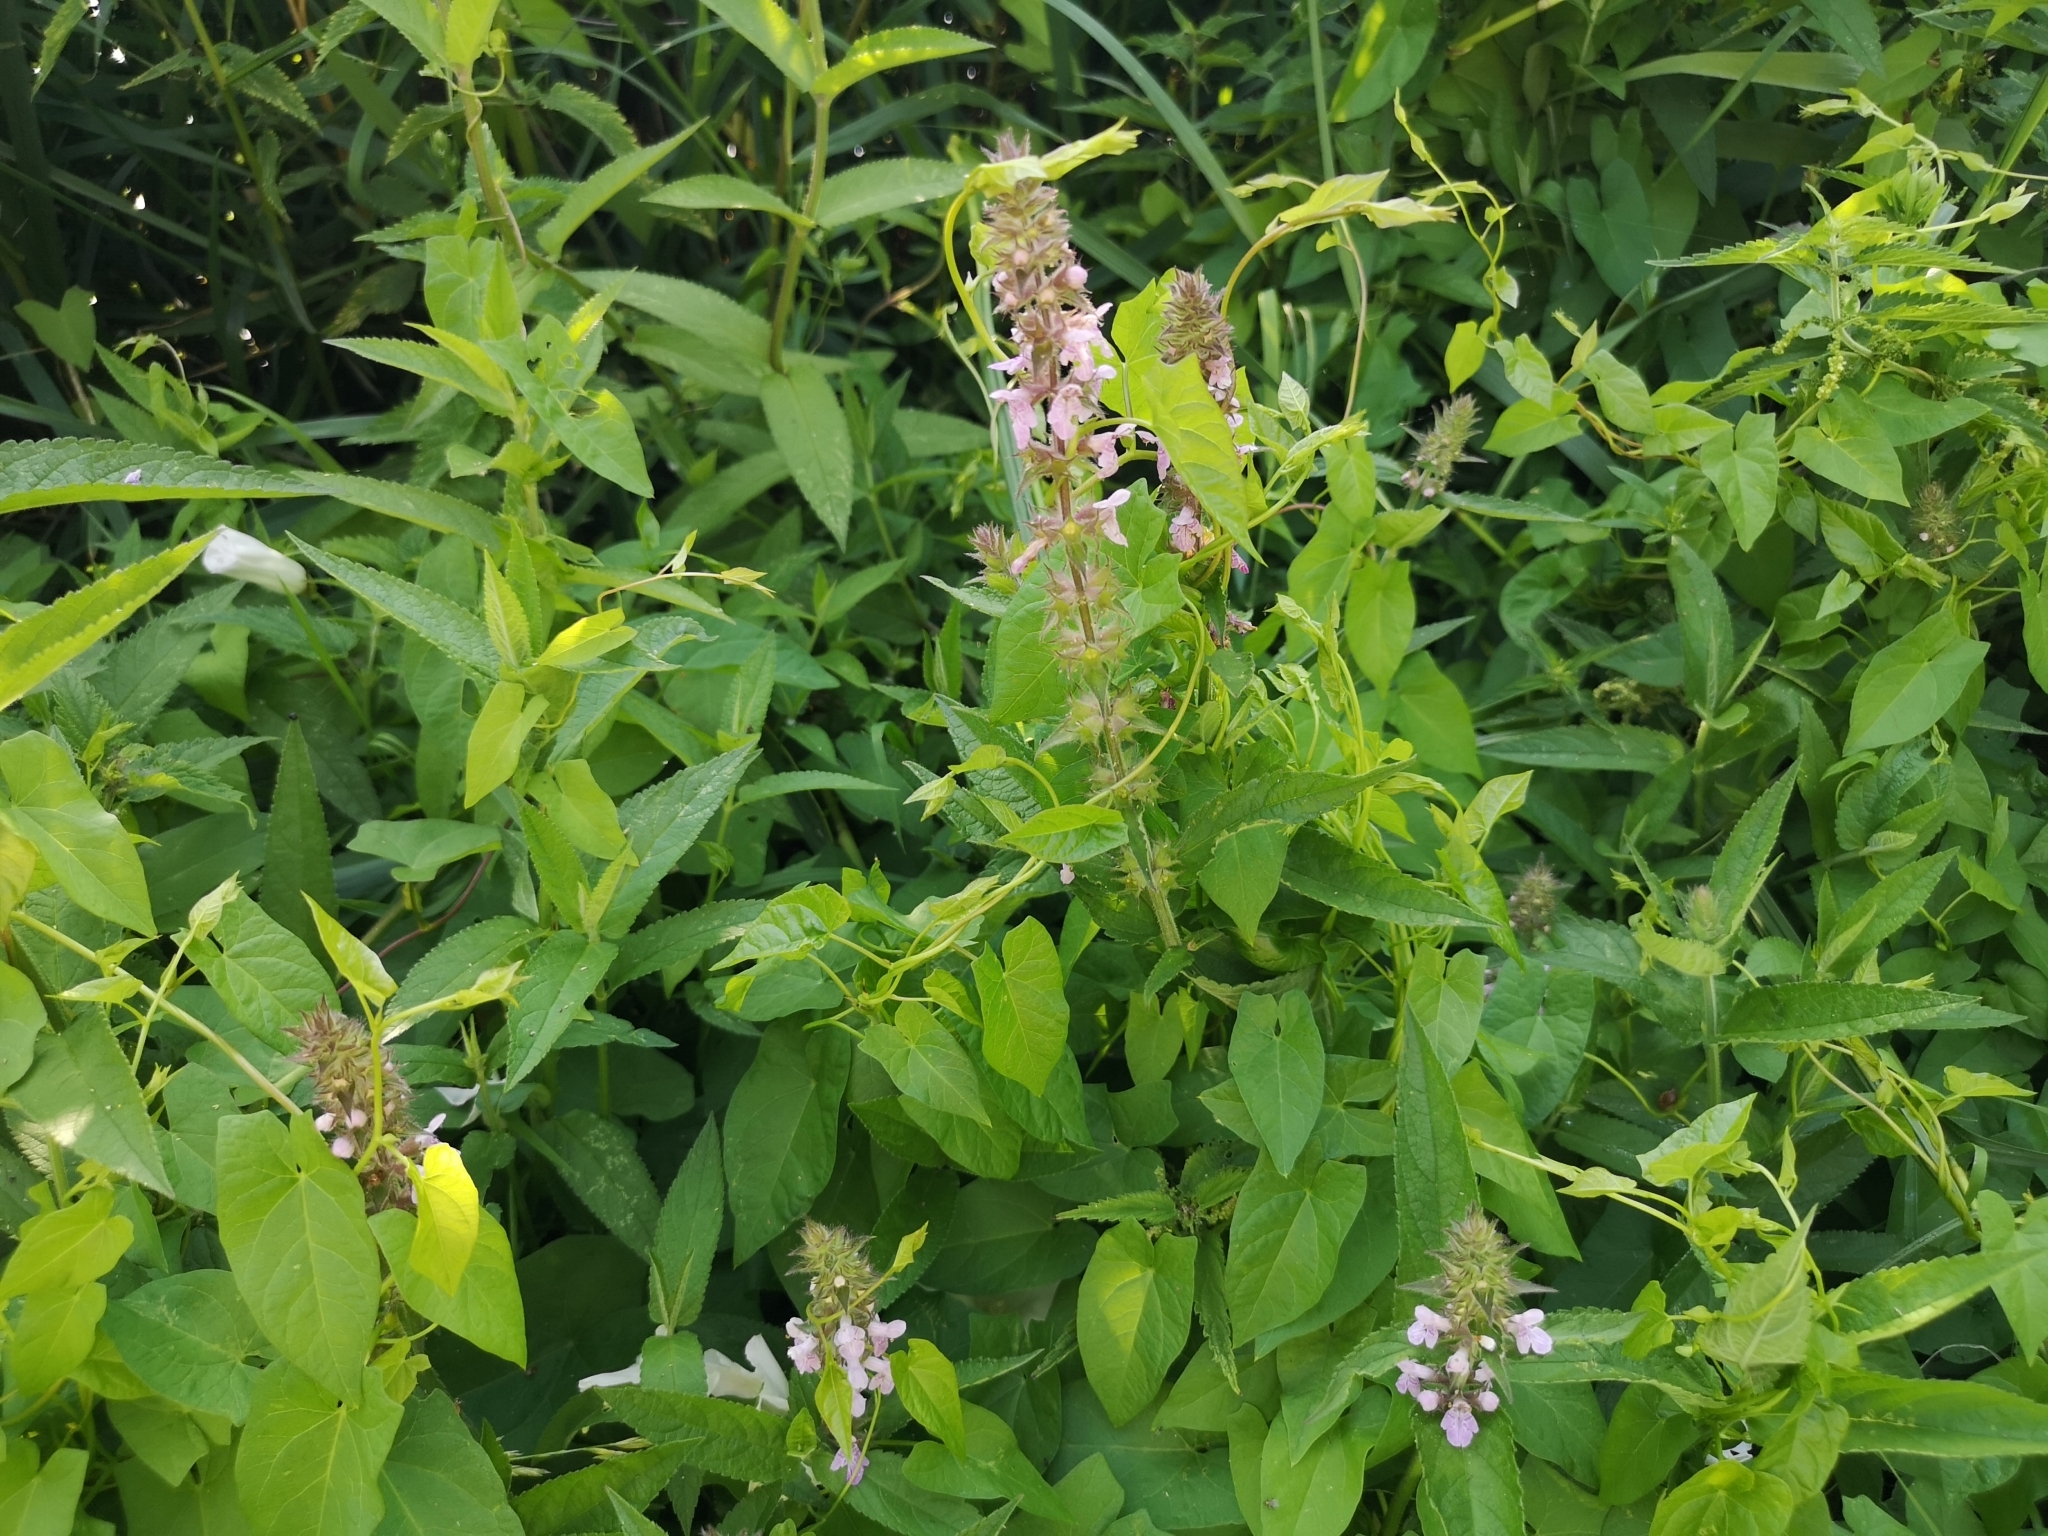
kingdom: Plantae
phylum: Tracheophyta
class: Magnoliopsida
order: Lamiales
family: Lamiaceae
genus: Stachys
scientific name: Stachys palustris
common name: Marsh woundwort
